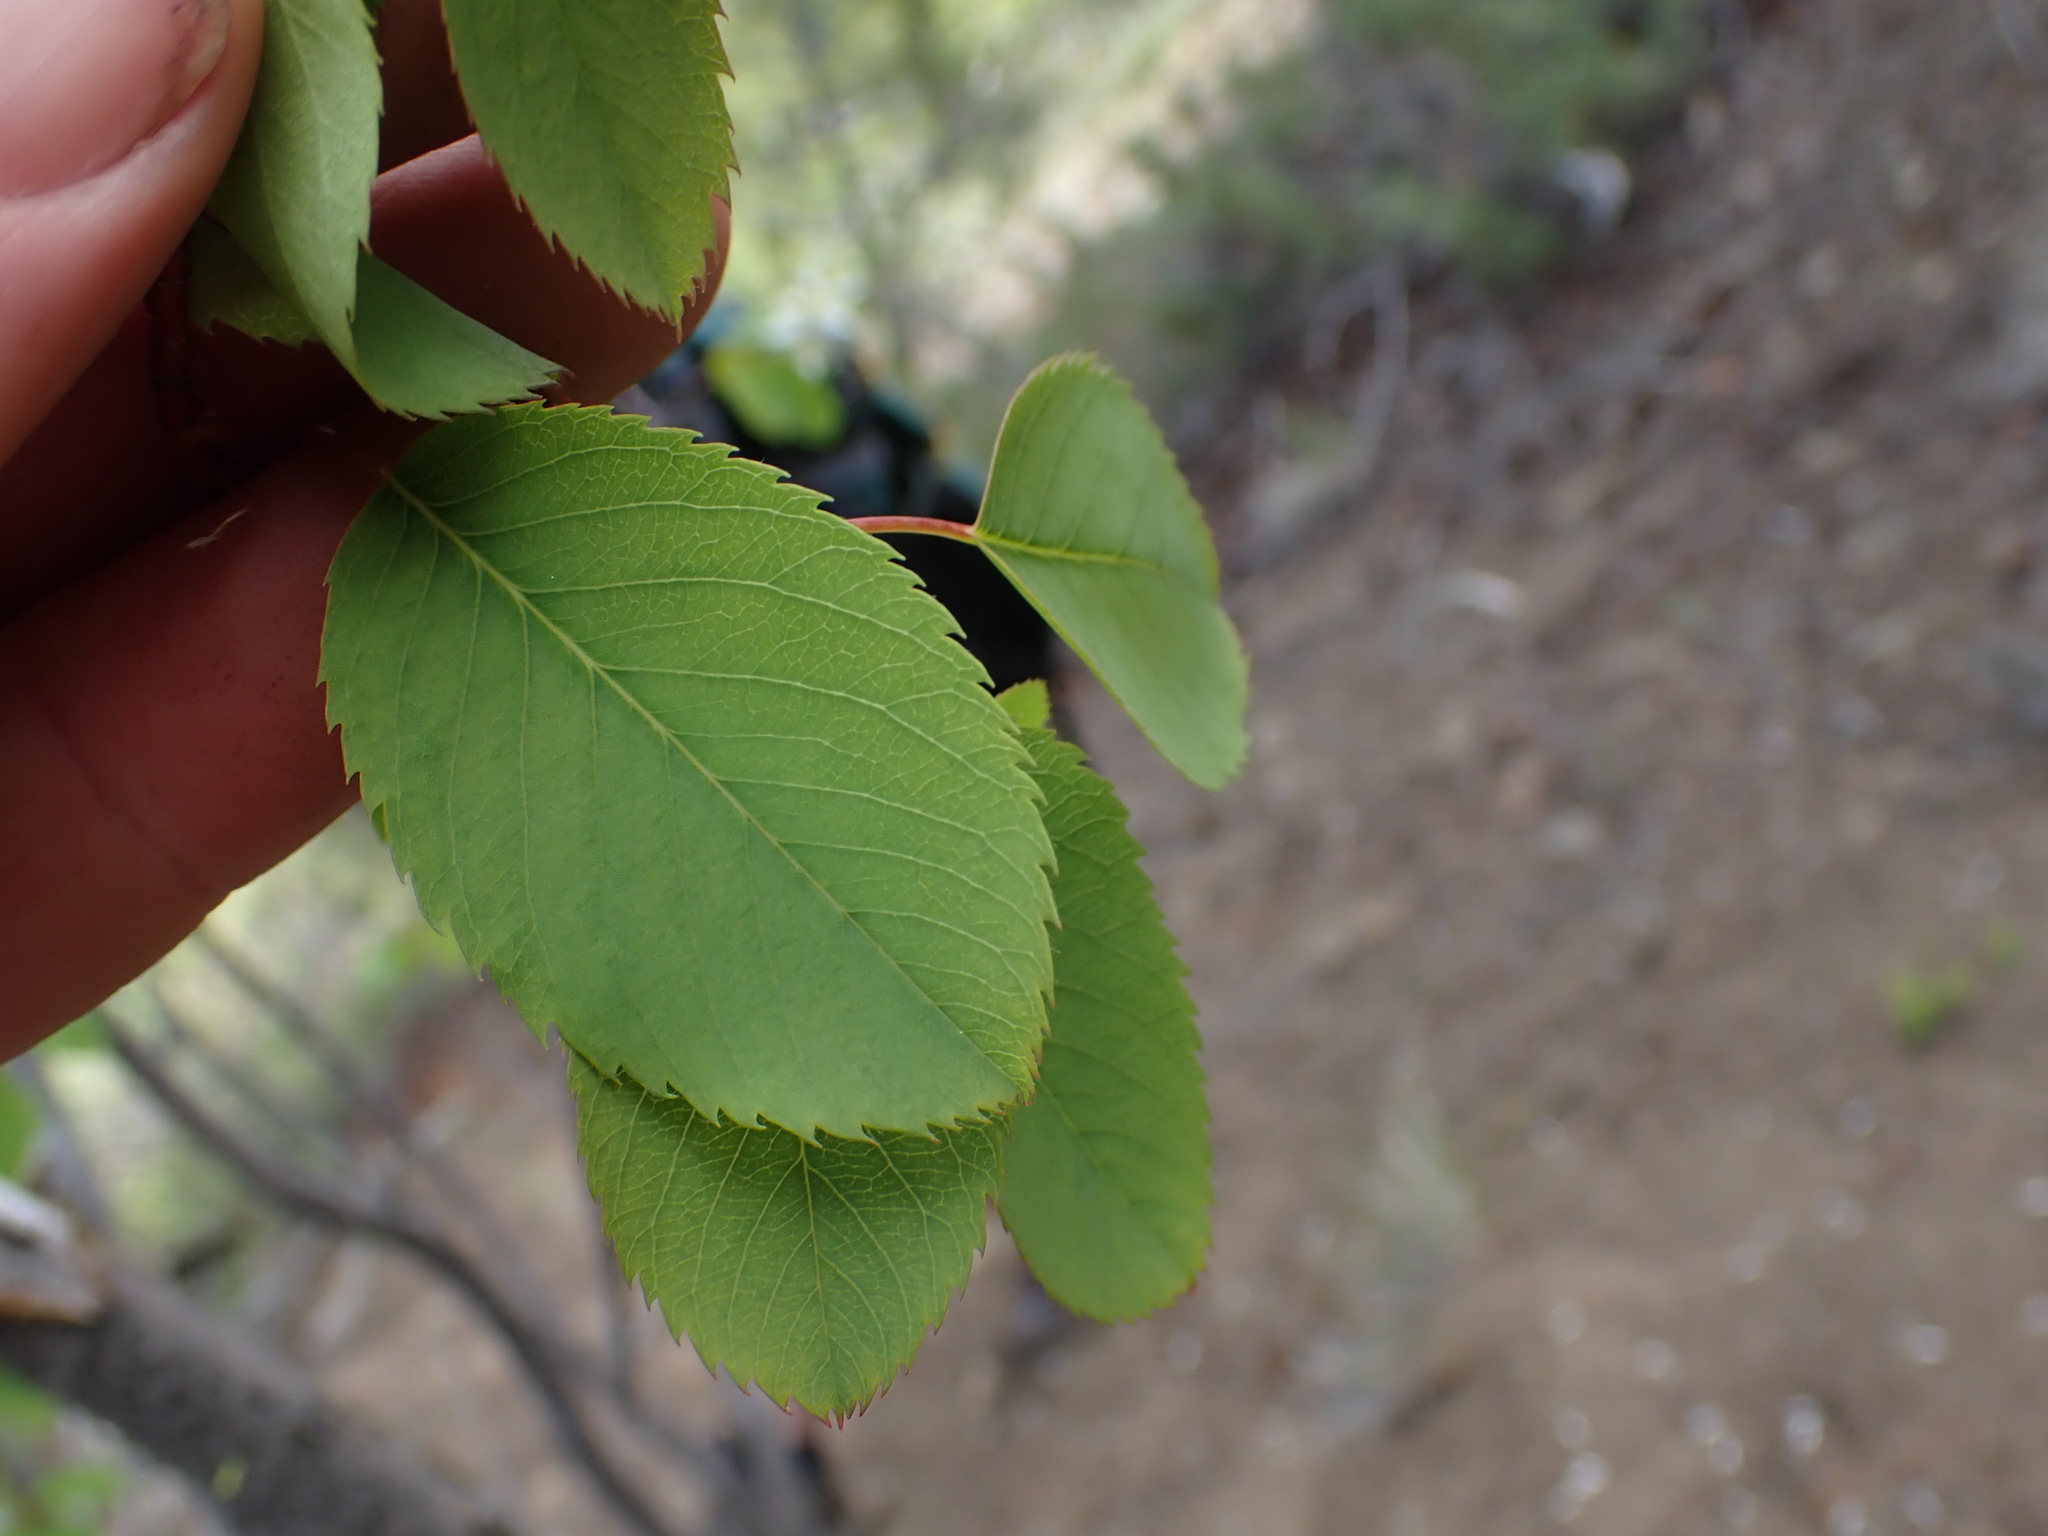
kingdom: Plantae
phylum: Tracheophyta
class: Magnoliopsida
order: Rosales
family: Rosaceae
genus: Amelanchier
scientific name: Amelanchier alnifolia
